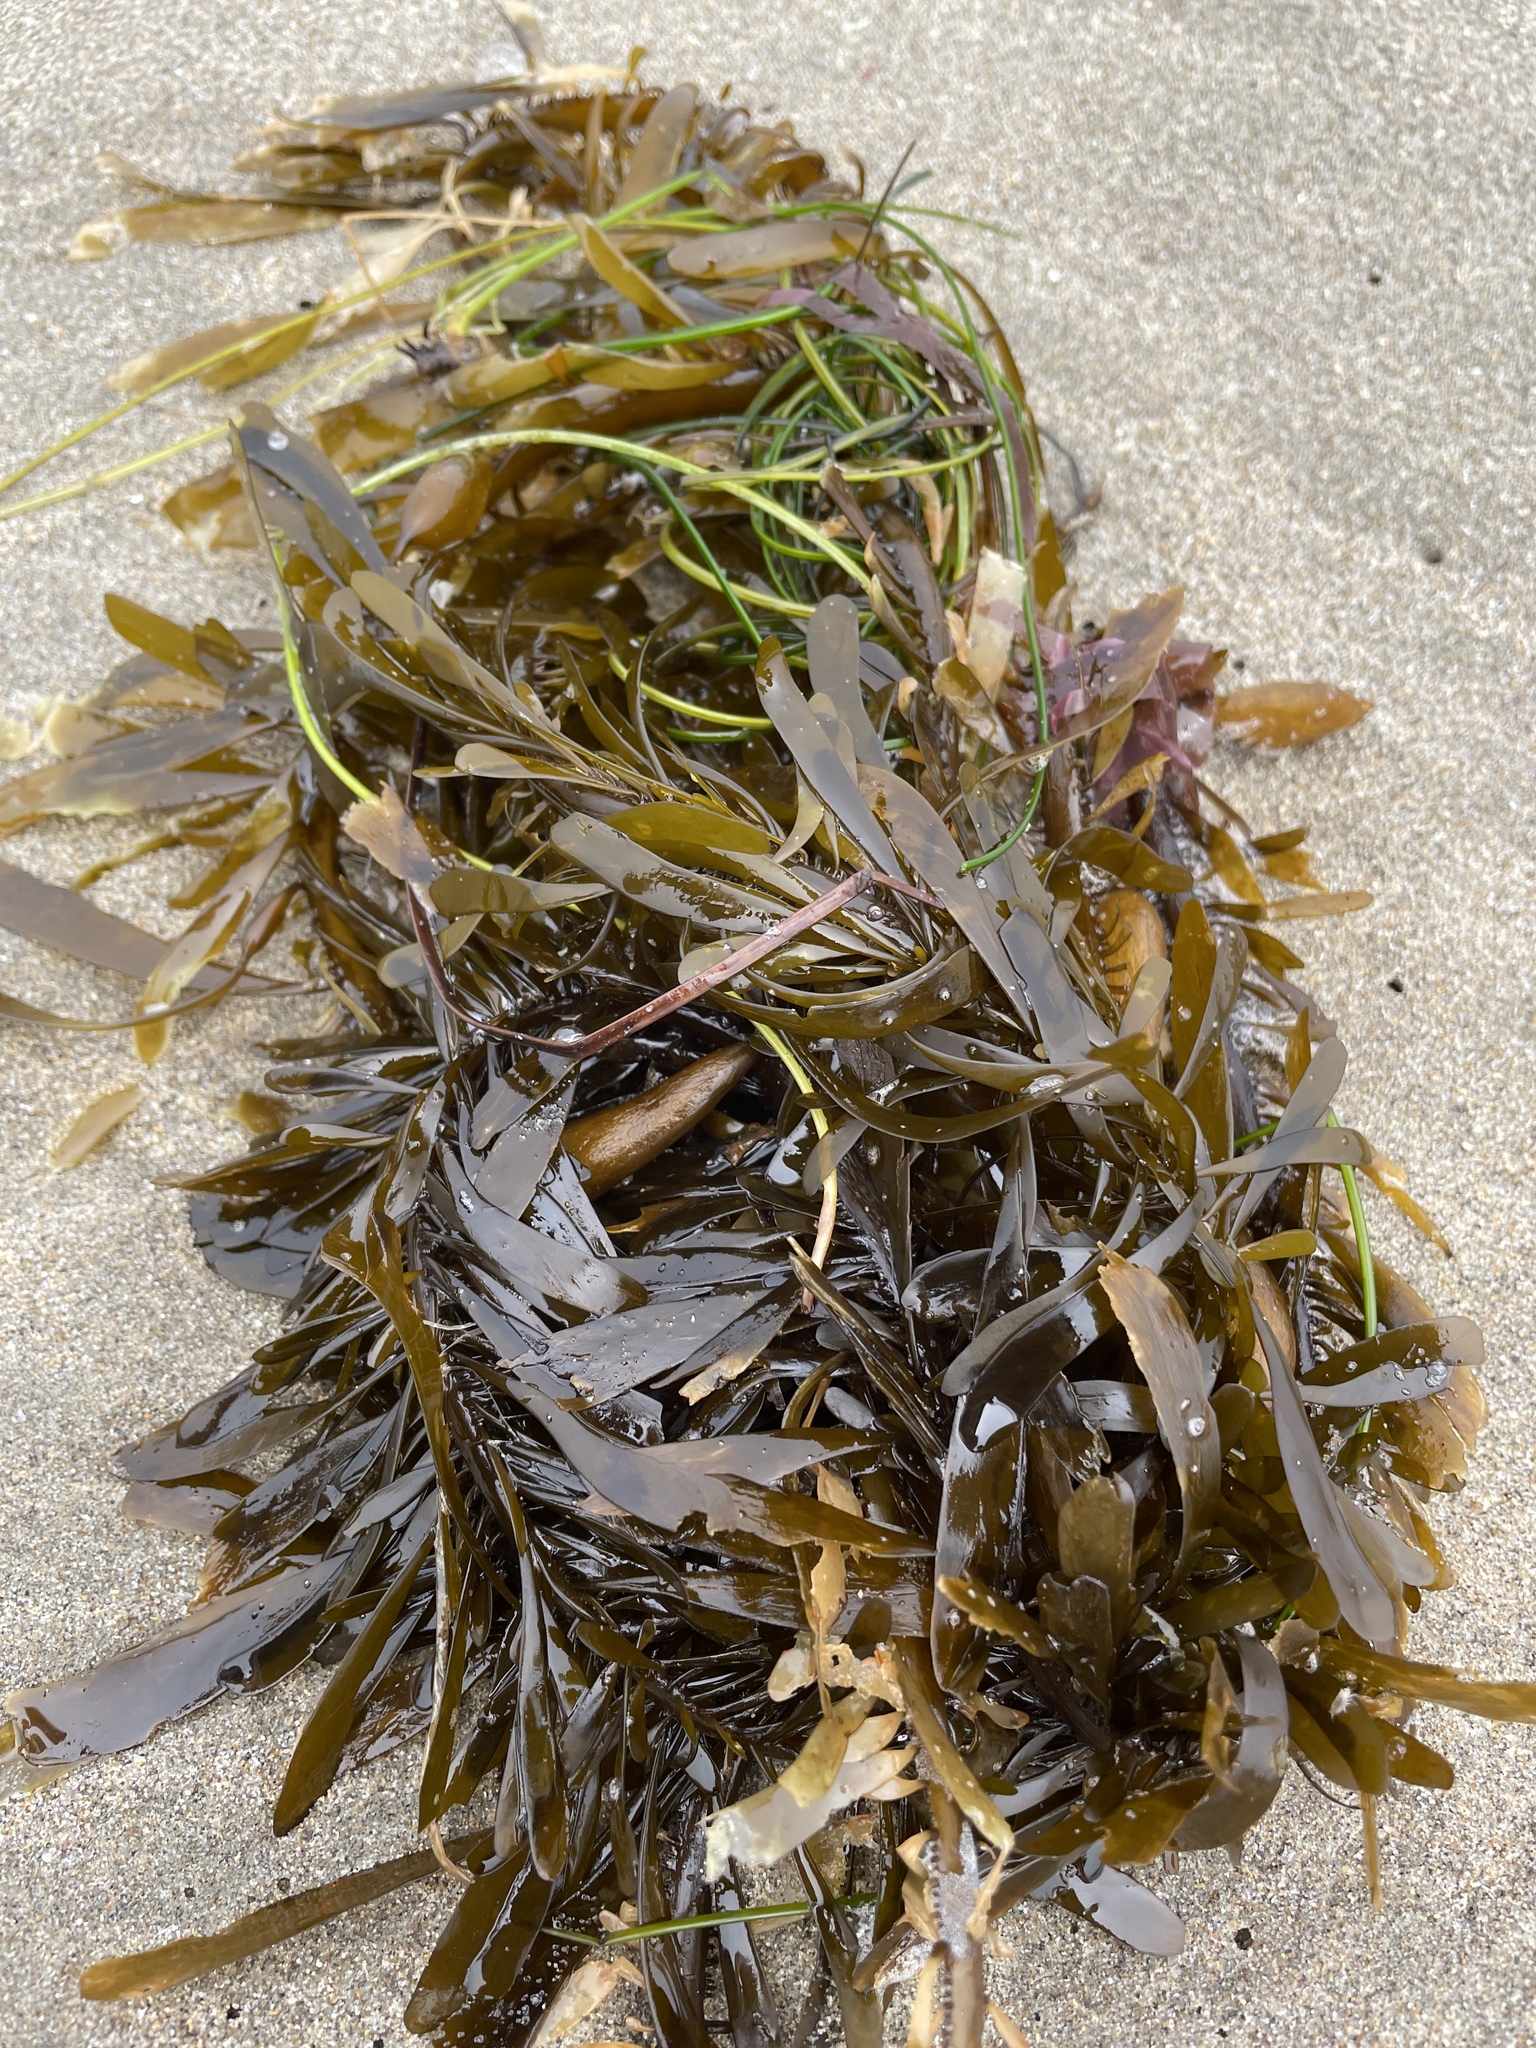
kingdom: Chromista
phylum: Ochrophyta
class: Phaeophyceae
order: Laminariales
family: Lessoniaceae
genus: Egregia
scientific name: Egregia menziesii
